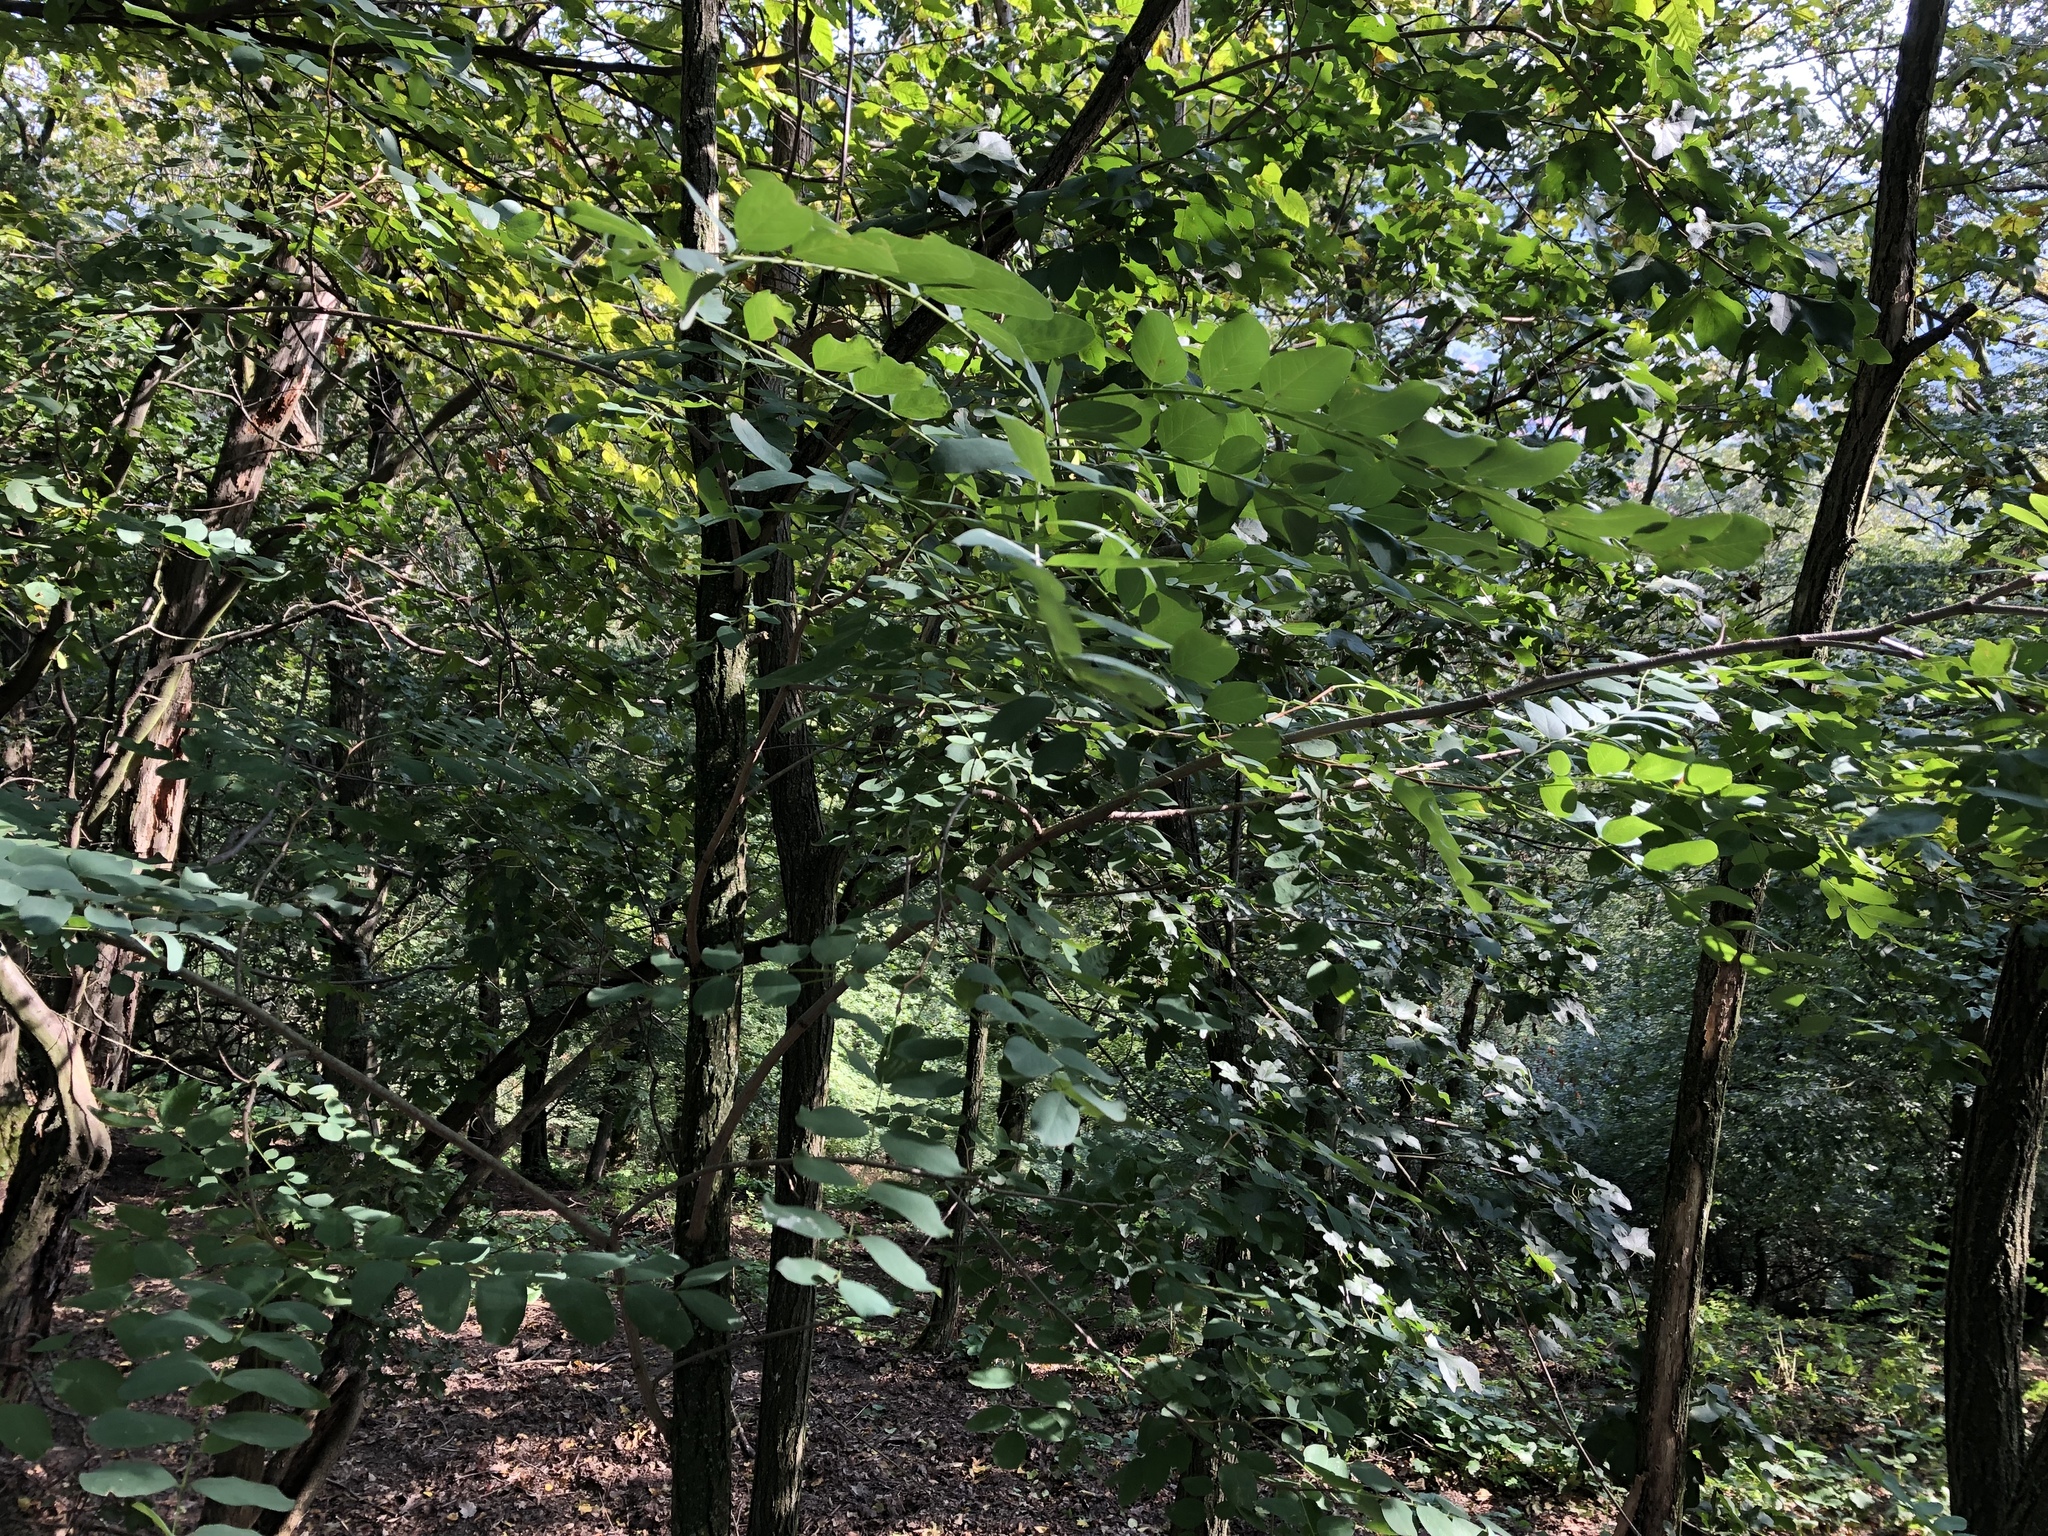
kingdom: Plantae
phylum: Tracheophyta
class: Magnoliopsida
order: Fabales
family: Fabaceae
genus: Robinia
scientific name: Robinia pseudoacacia
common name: Black locust
